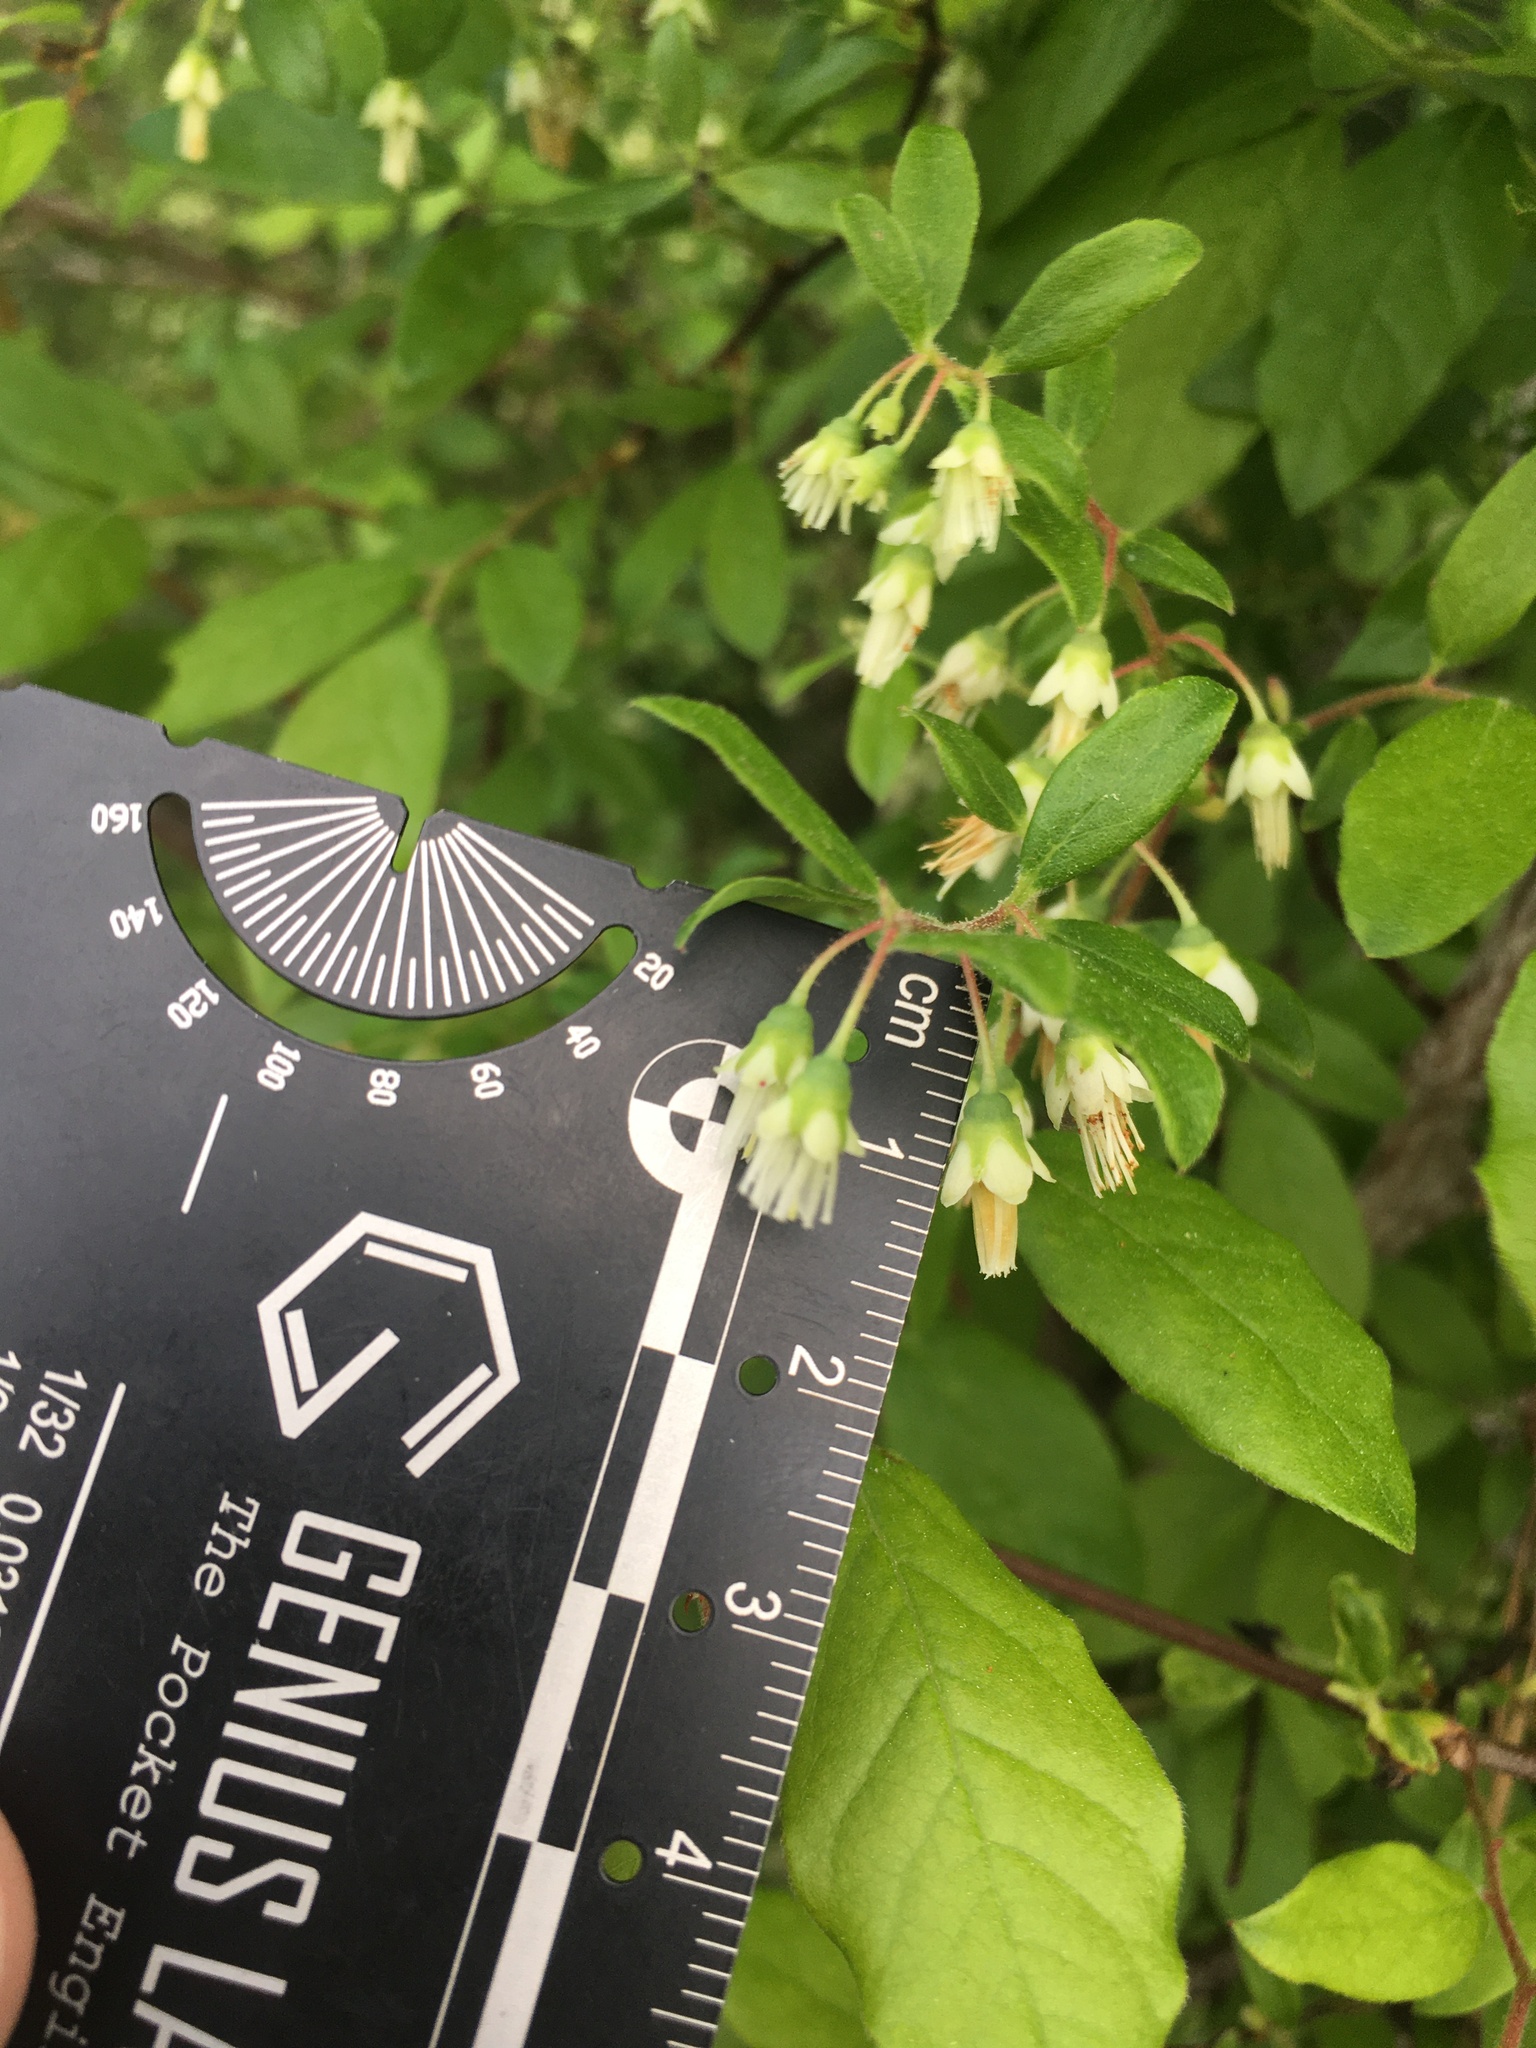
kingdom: Plantae
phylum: Tracheophyta
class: Magnoliopsida
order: Ericales
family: Ericaceae
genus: Vaccinium
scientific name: Vaccinium stamineum
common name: Deerberry
